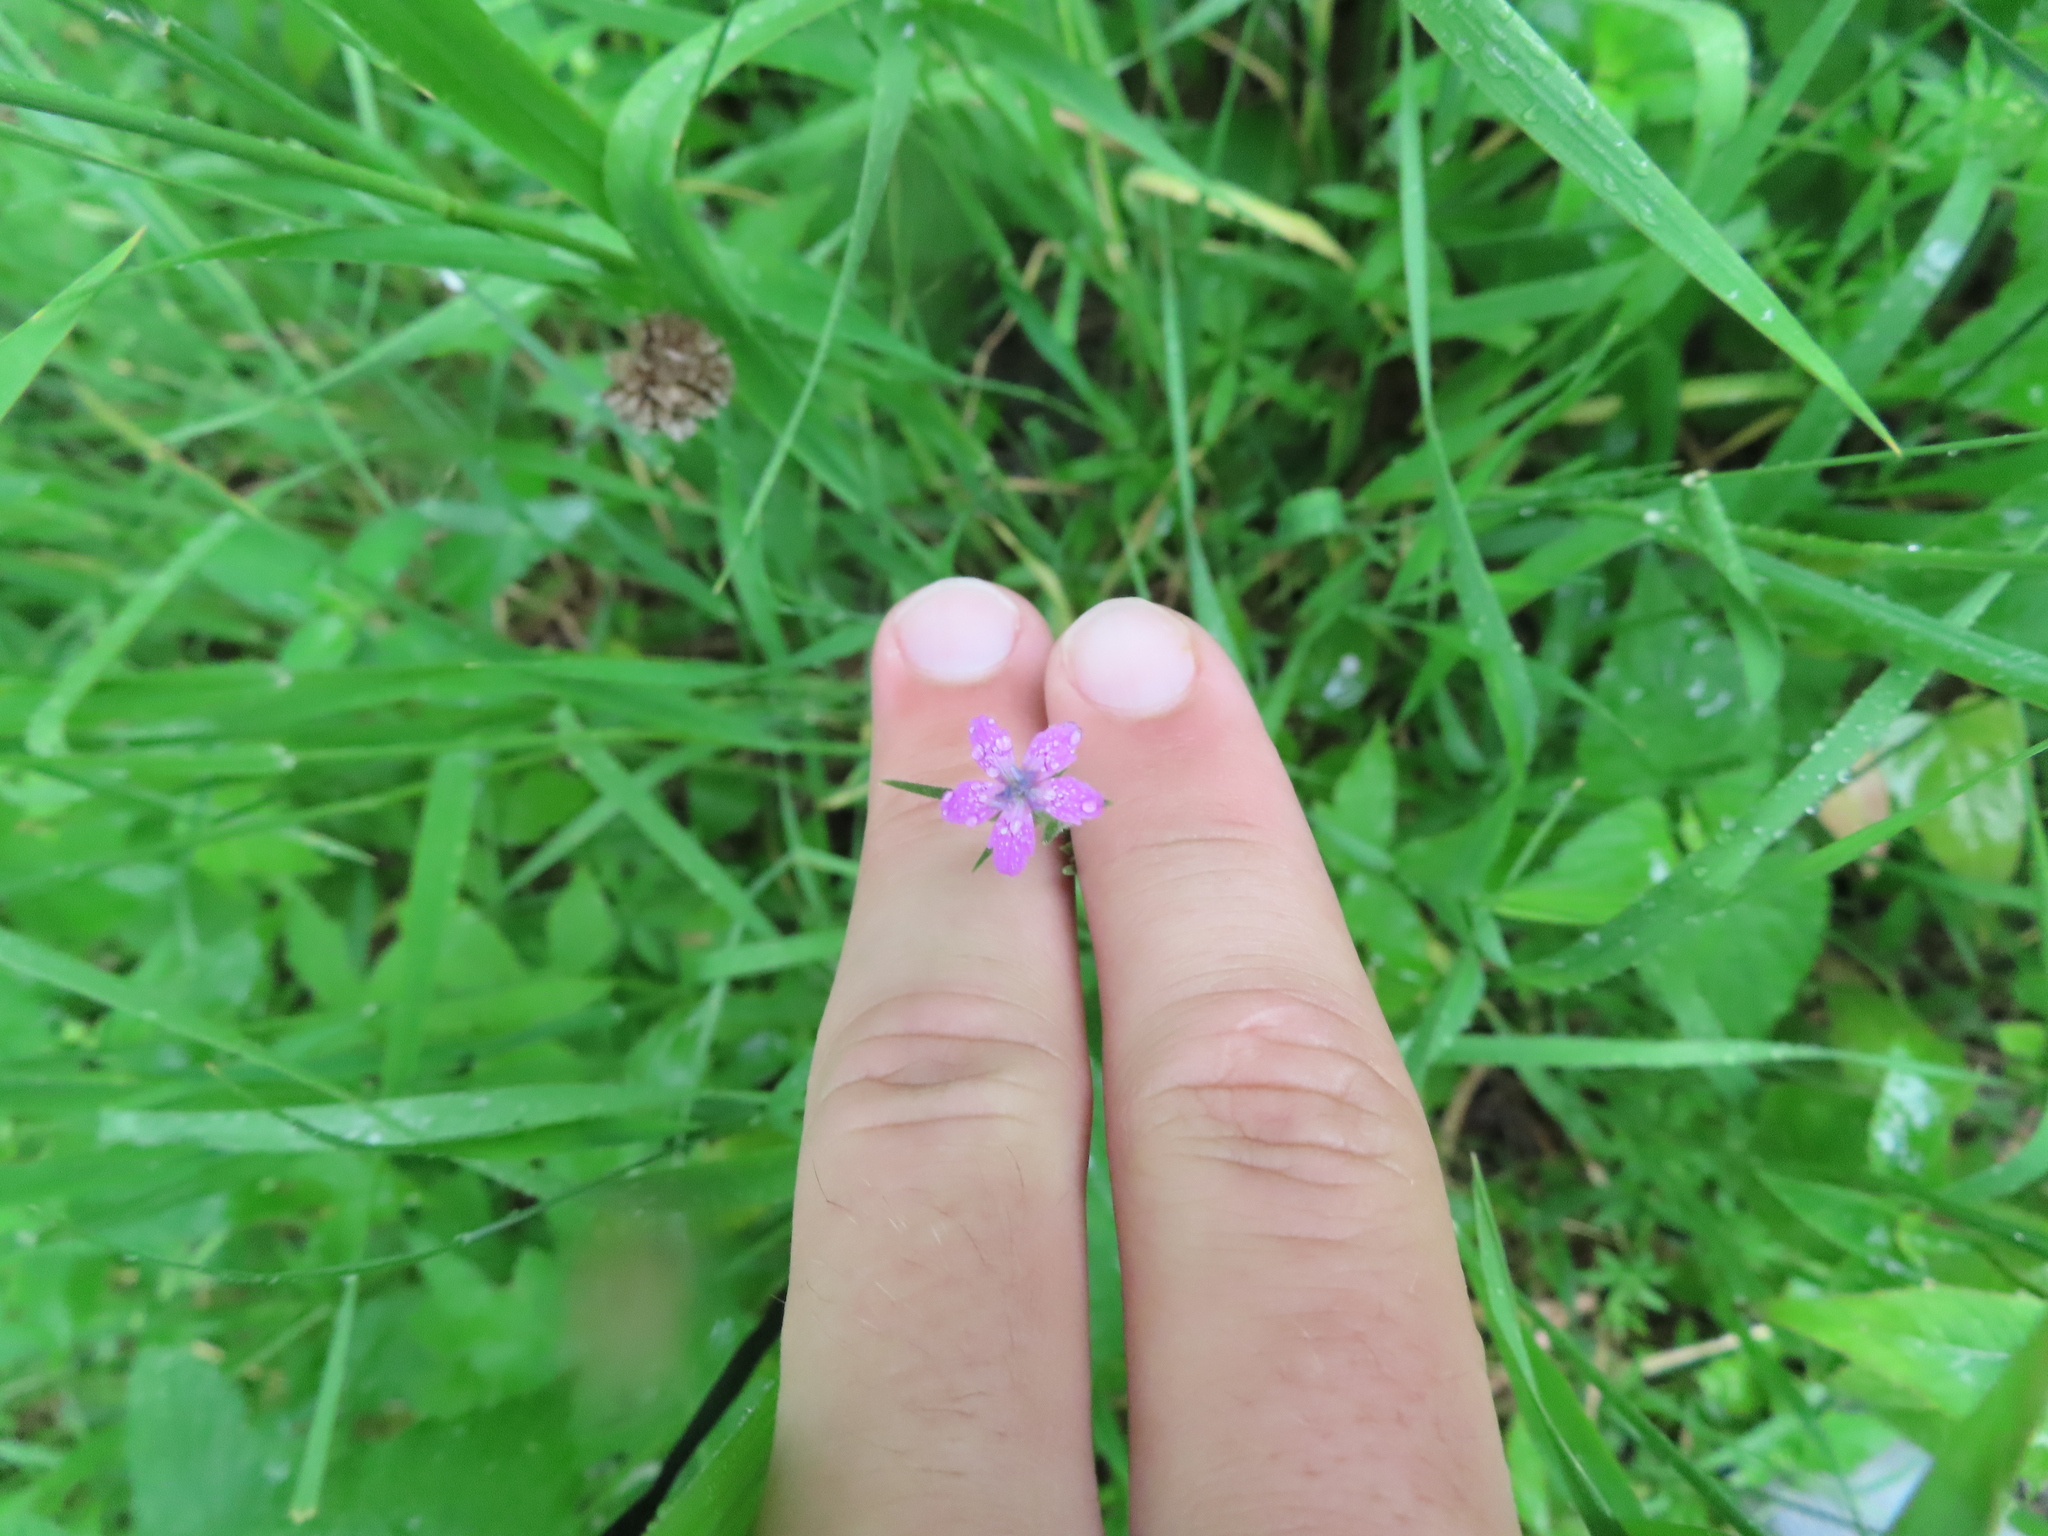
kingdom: Plantae
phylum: Tracheophyta
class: Magnoliopsida
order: Caryophyllales
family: Caryophyllaceae
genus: Dianthus
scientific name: Dianthus armeria
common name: Deptford pink
